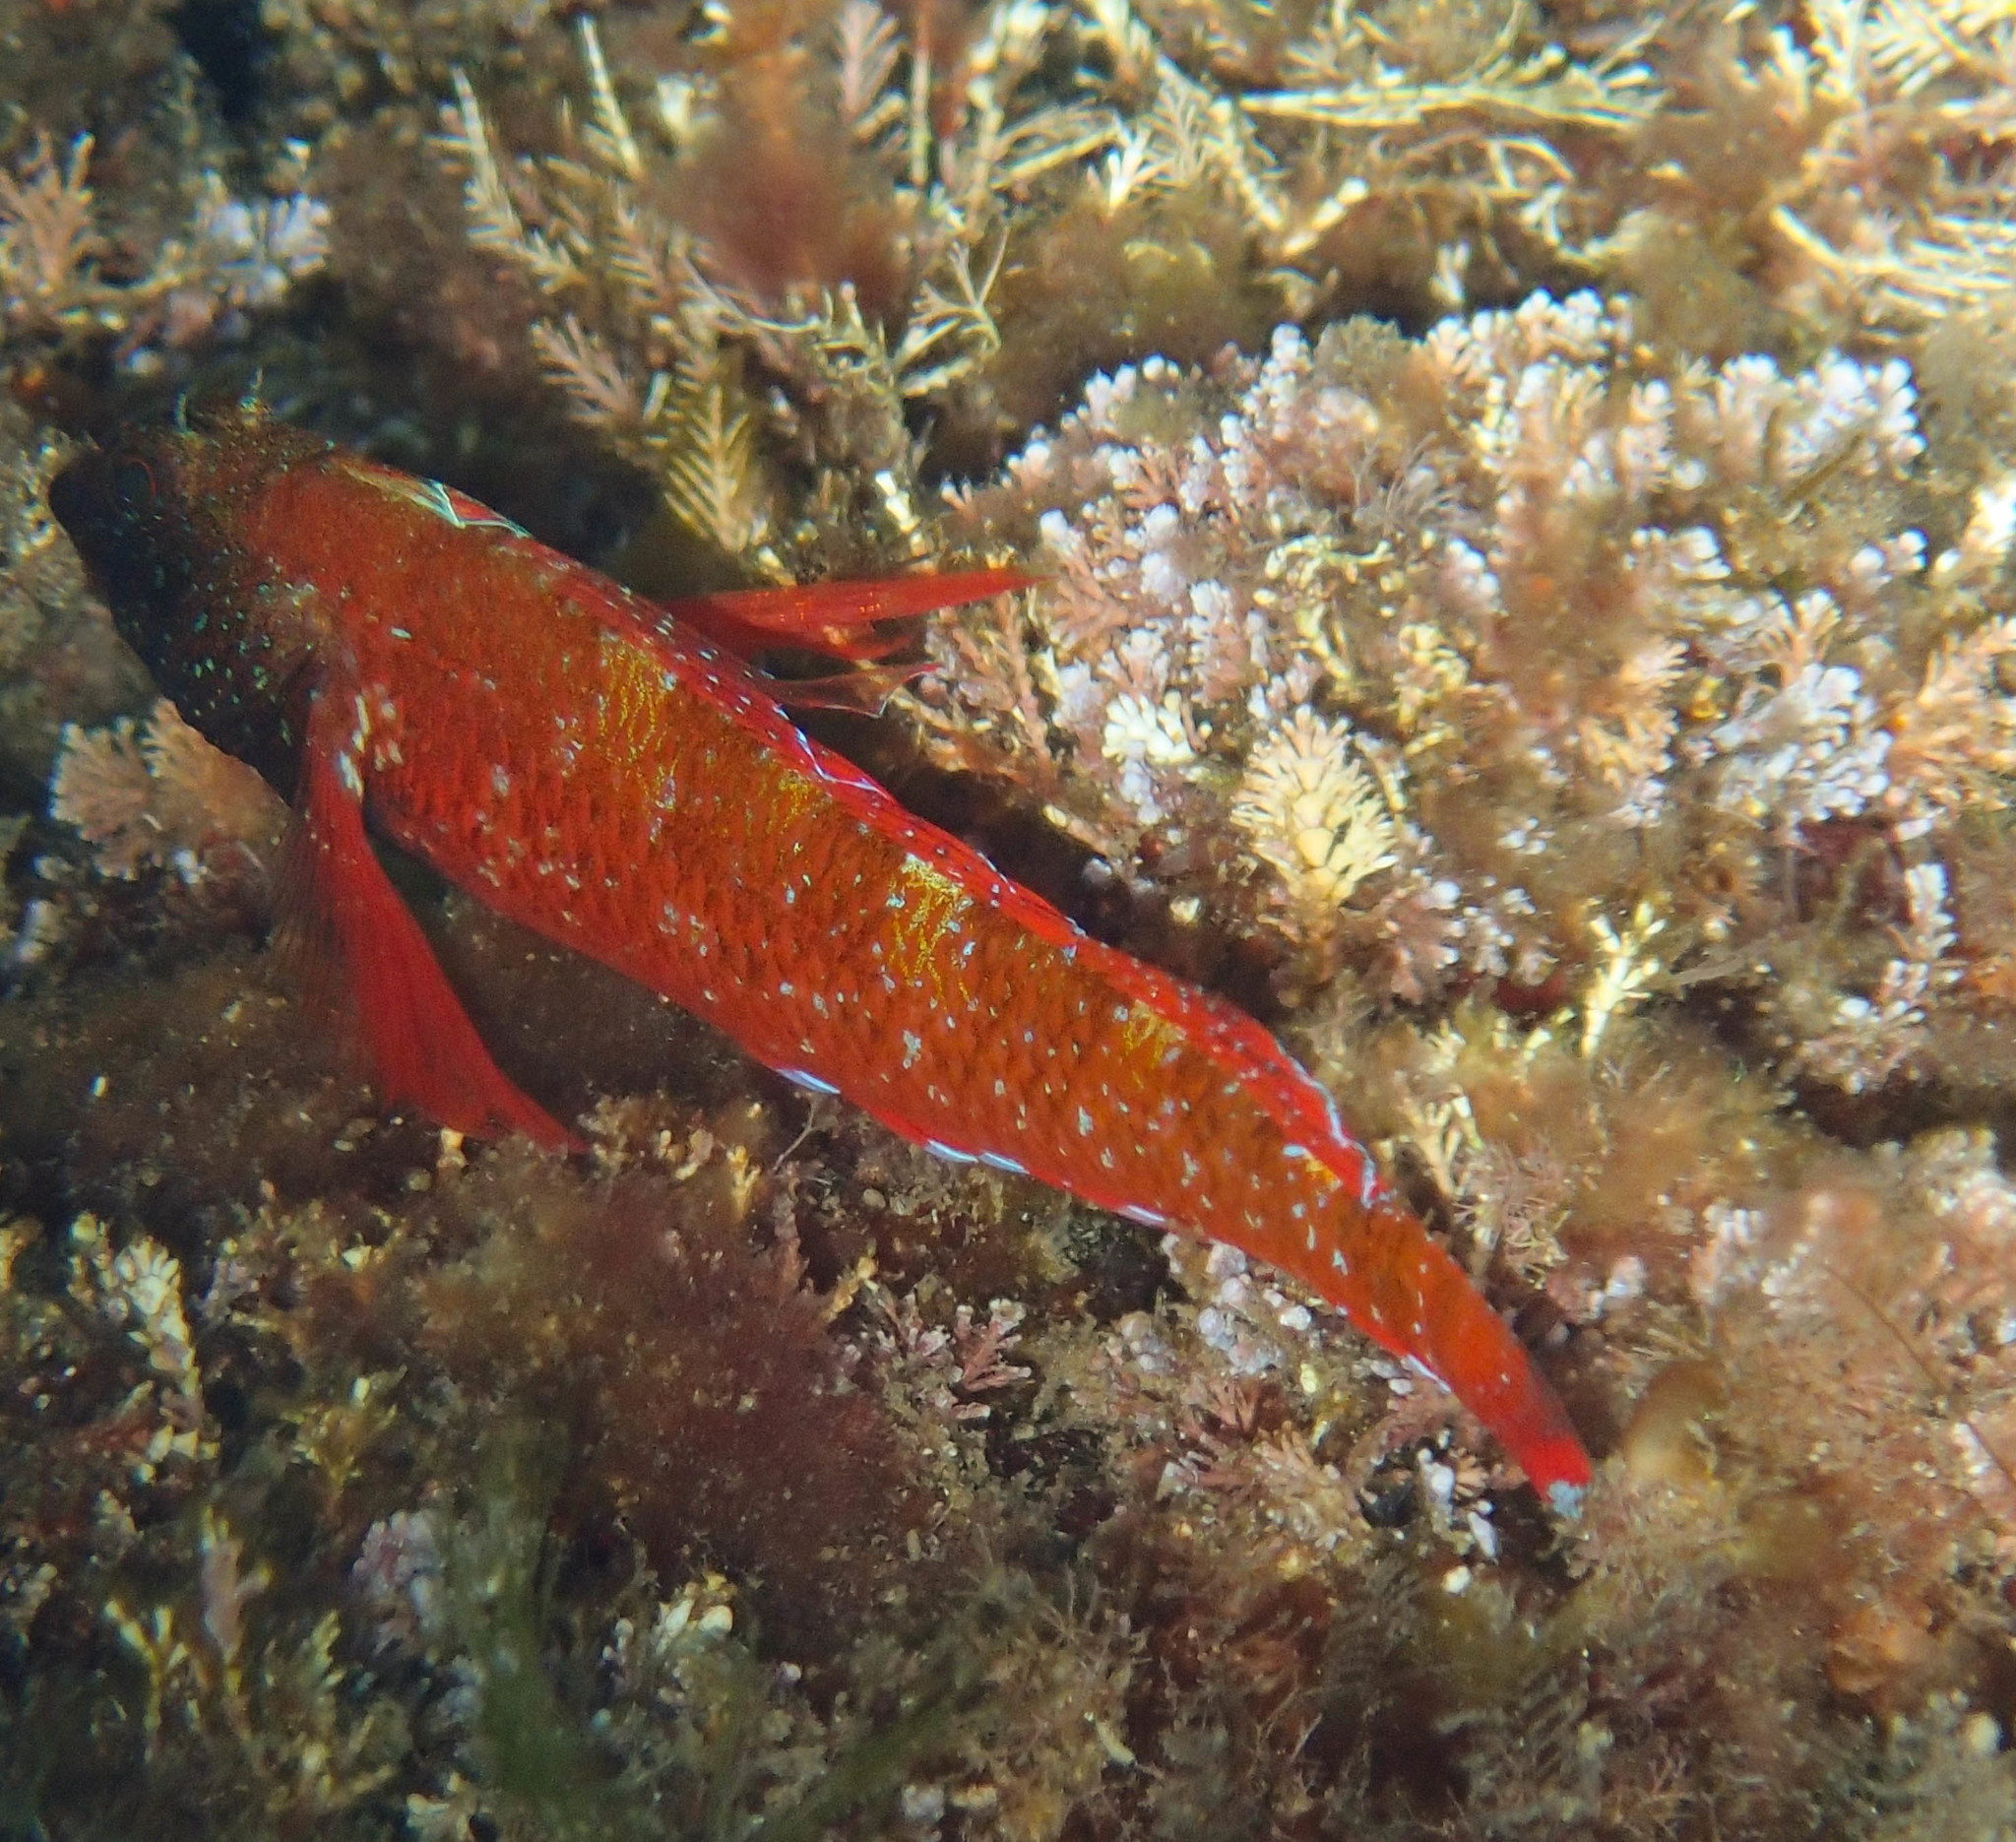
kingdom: Animalia
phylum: Chordata
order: Perciformes
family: Tripterygiidae
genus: Tripterygion
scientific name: Tripterygion tripteronotum
